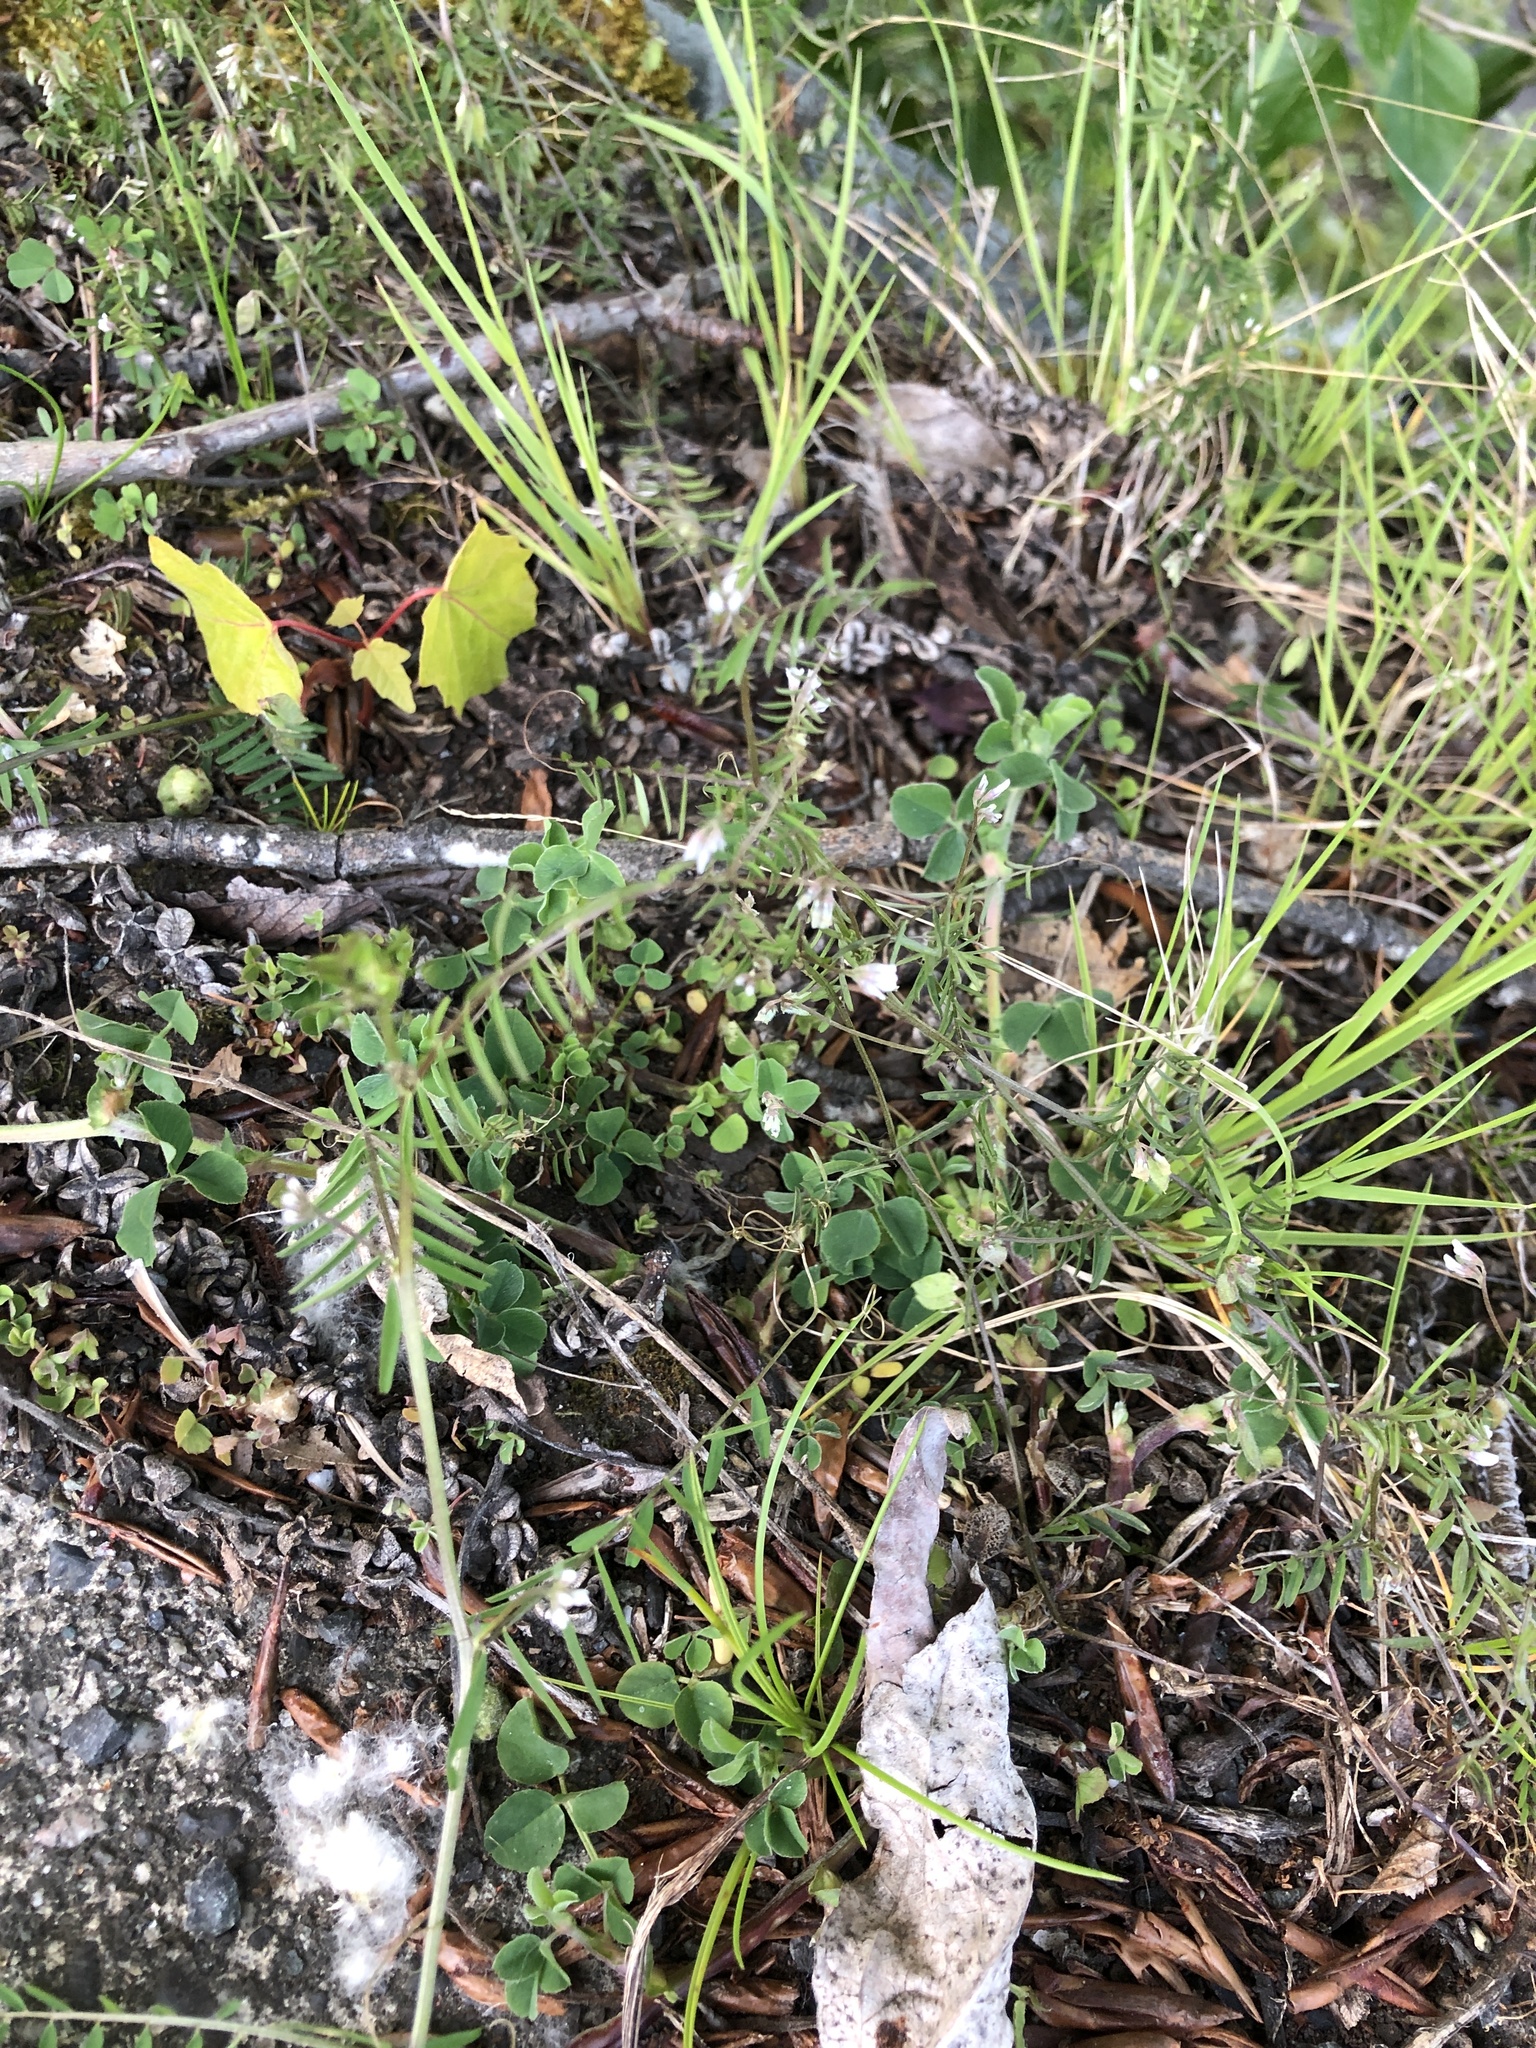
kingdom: Plantae
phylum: Tracheophyta
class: Magnoliopsida
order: Fabales
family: Fabaceae
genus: Vicia
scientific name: Vicia hirsuta
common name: Tiny vetch
